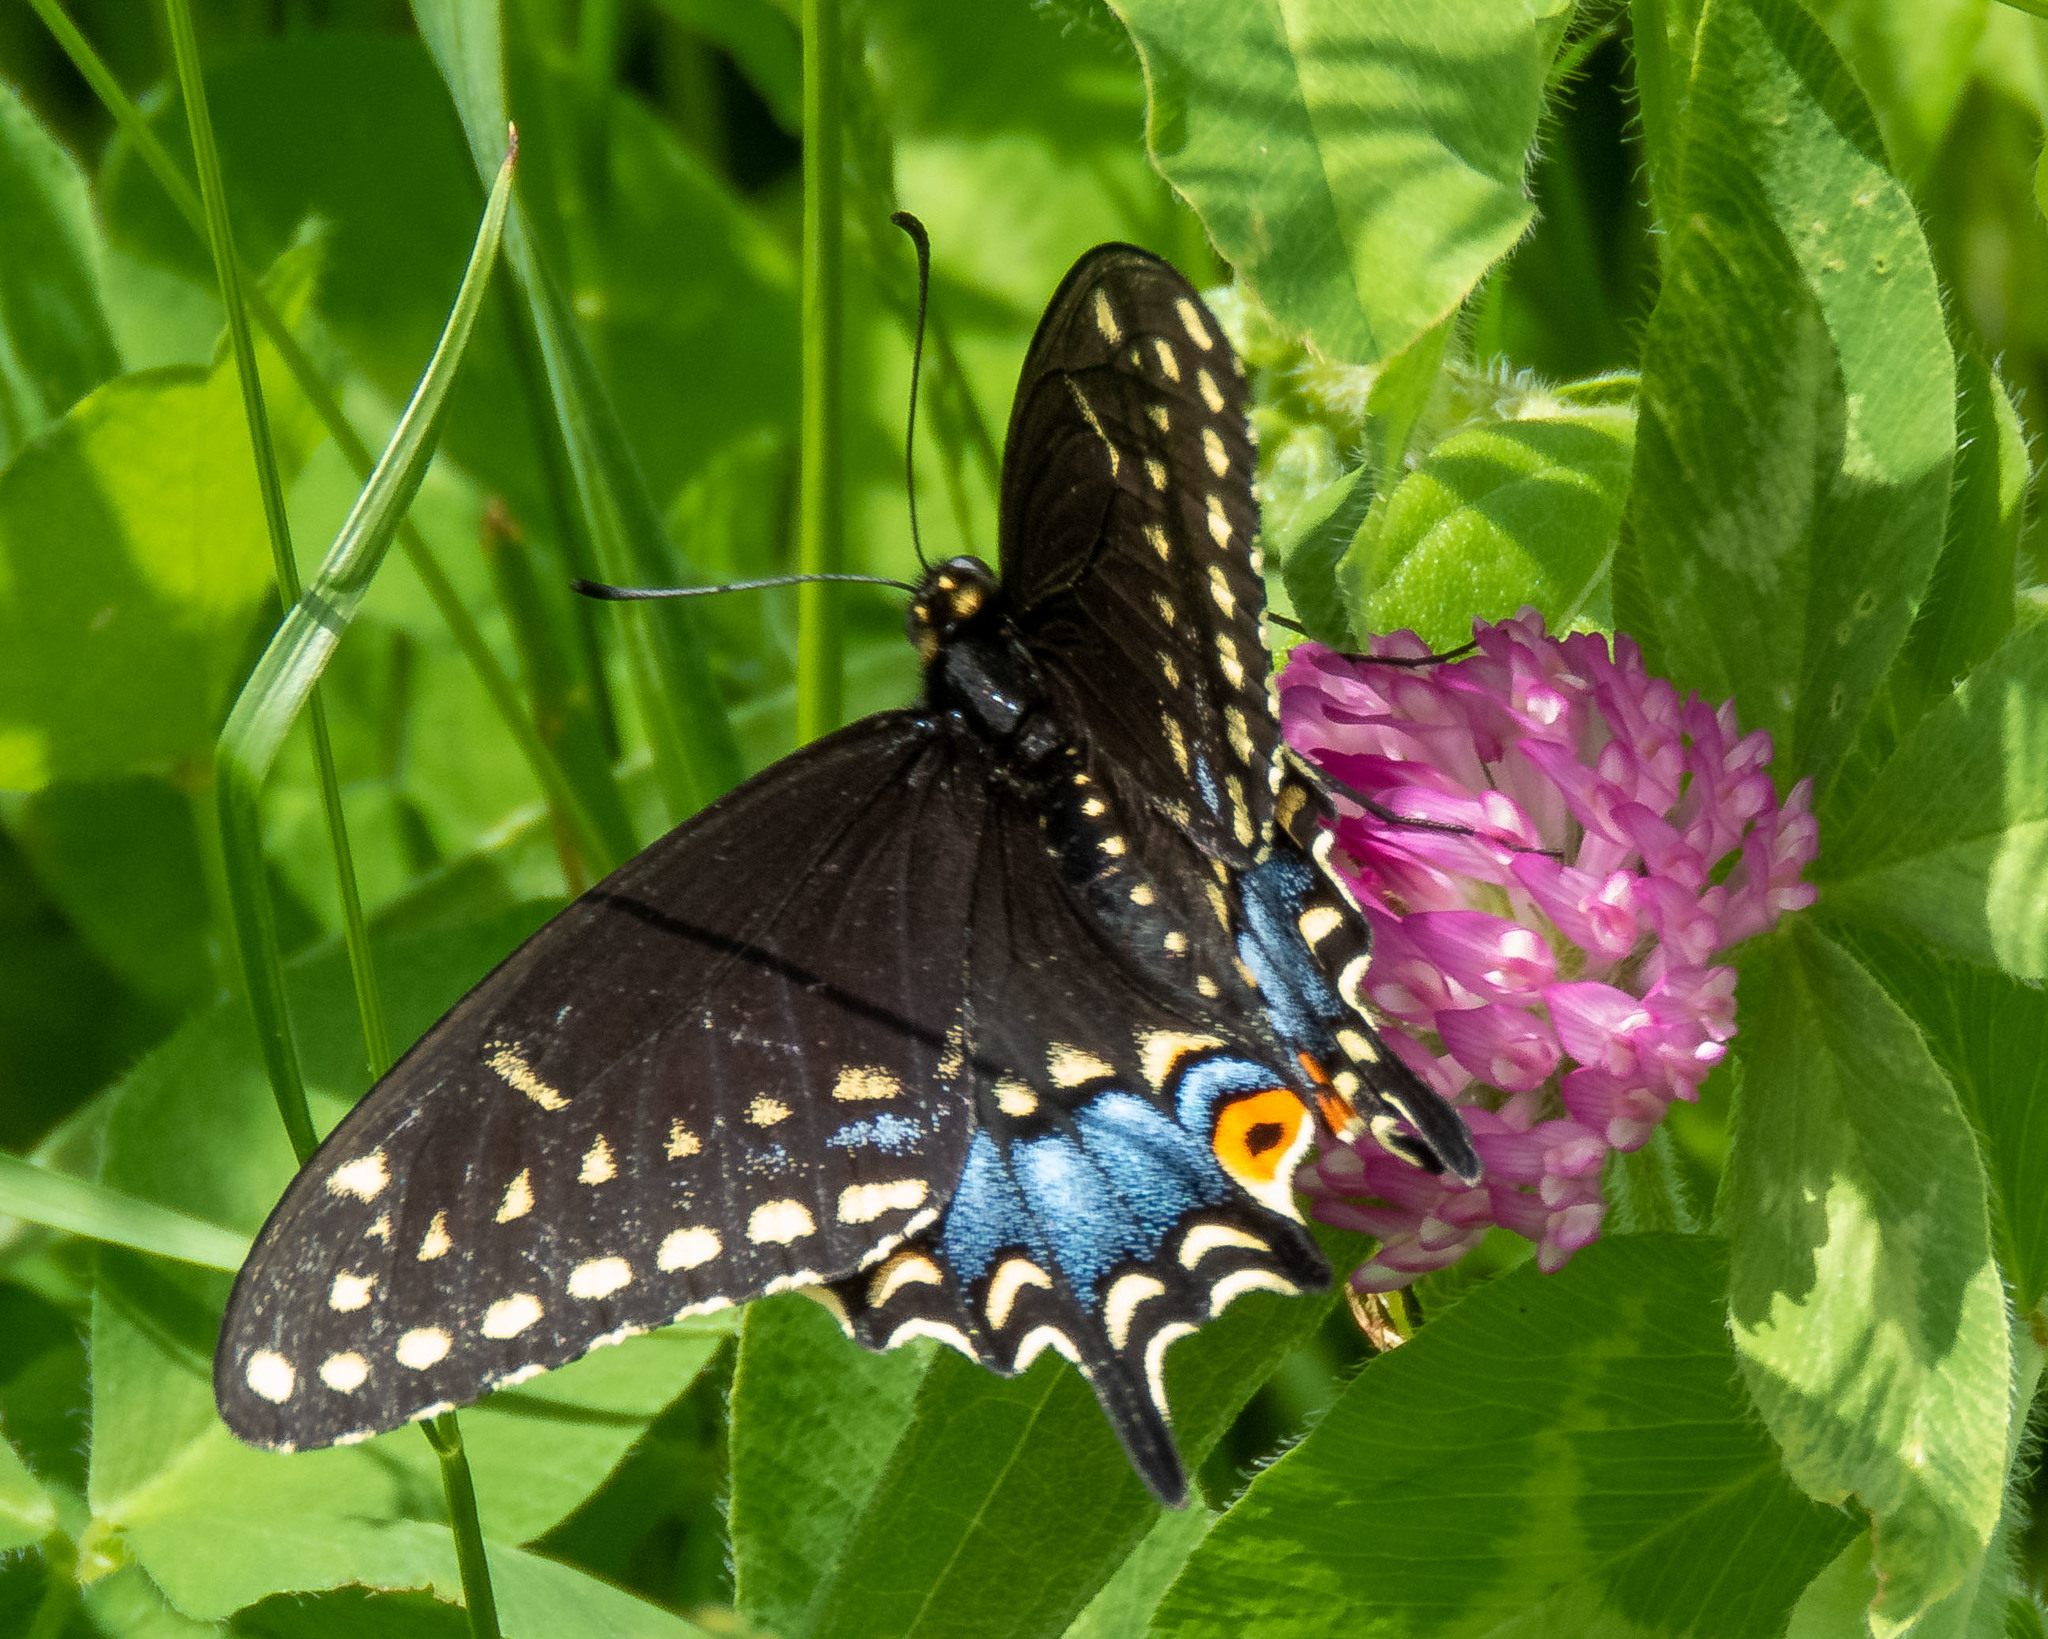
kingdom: Animalia
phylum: Arthropoda
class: Insecta
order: Lepidoptera
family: Papilionidae
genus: Papilio
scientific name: Papilio polyxenes
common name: Black swallowtail
